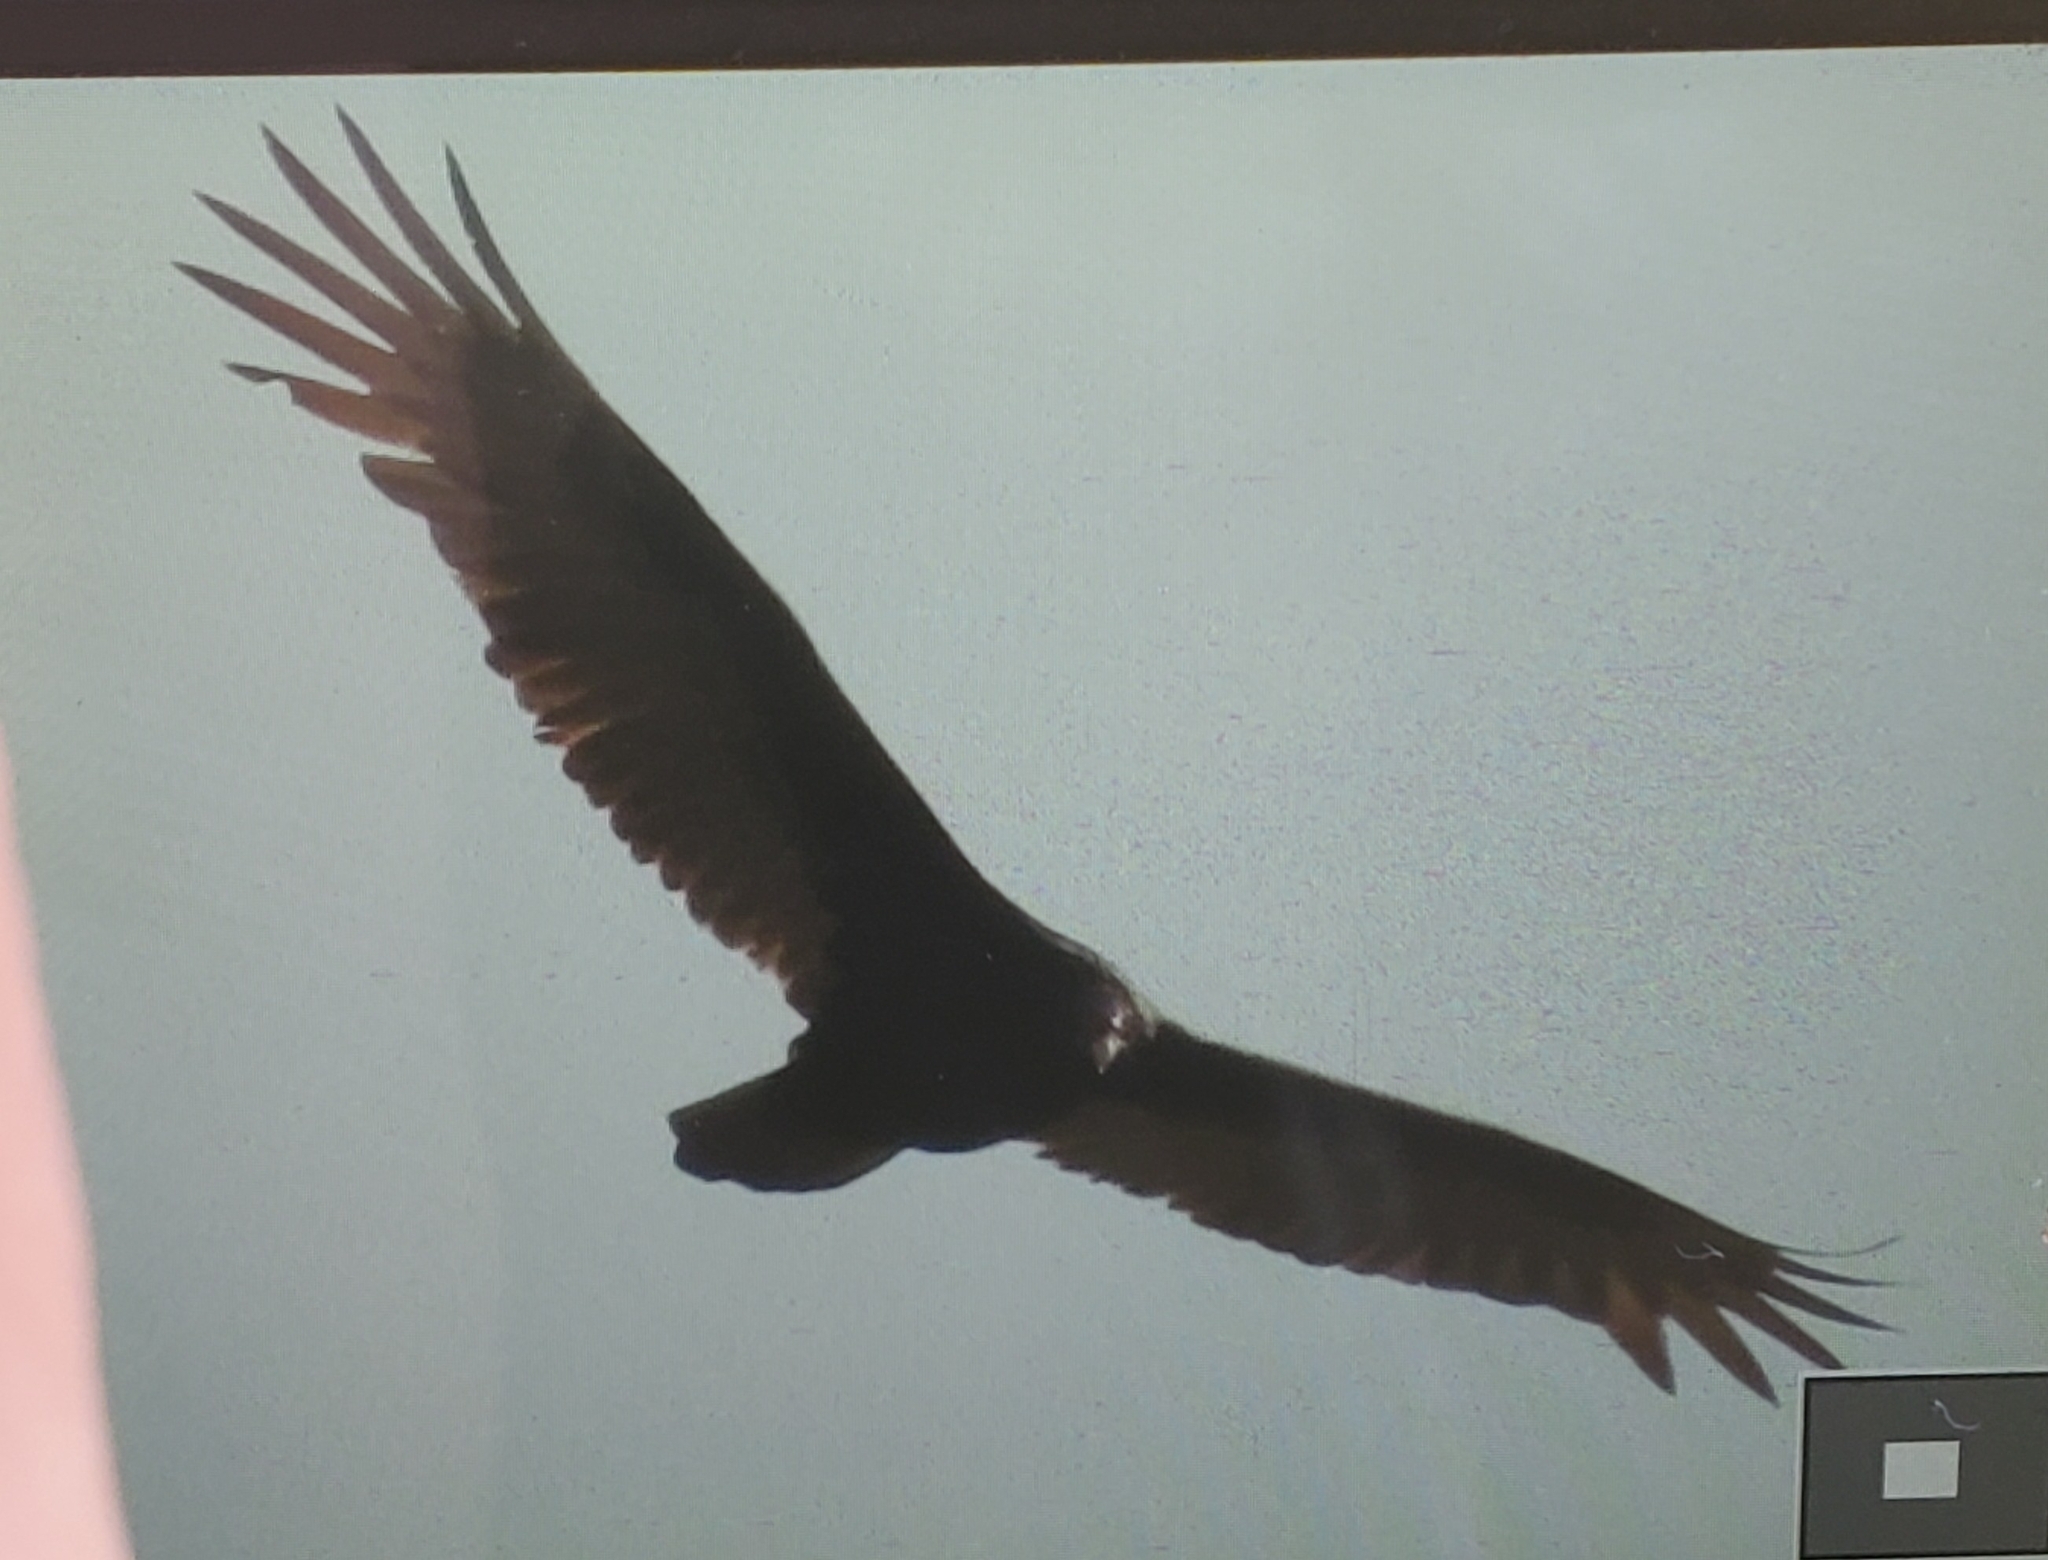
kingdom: Animalia
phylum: Chordata
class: Aves
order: Accipitriformes
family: Cathartidae
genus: Cathartes
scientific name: Cathartes aura
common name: Turkey vulture
